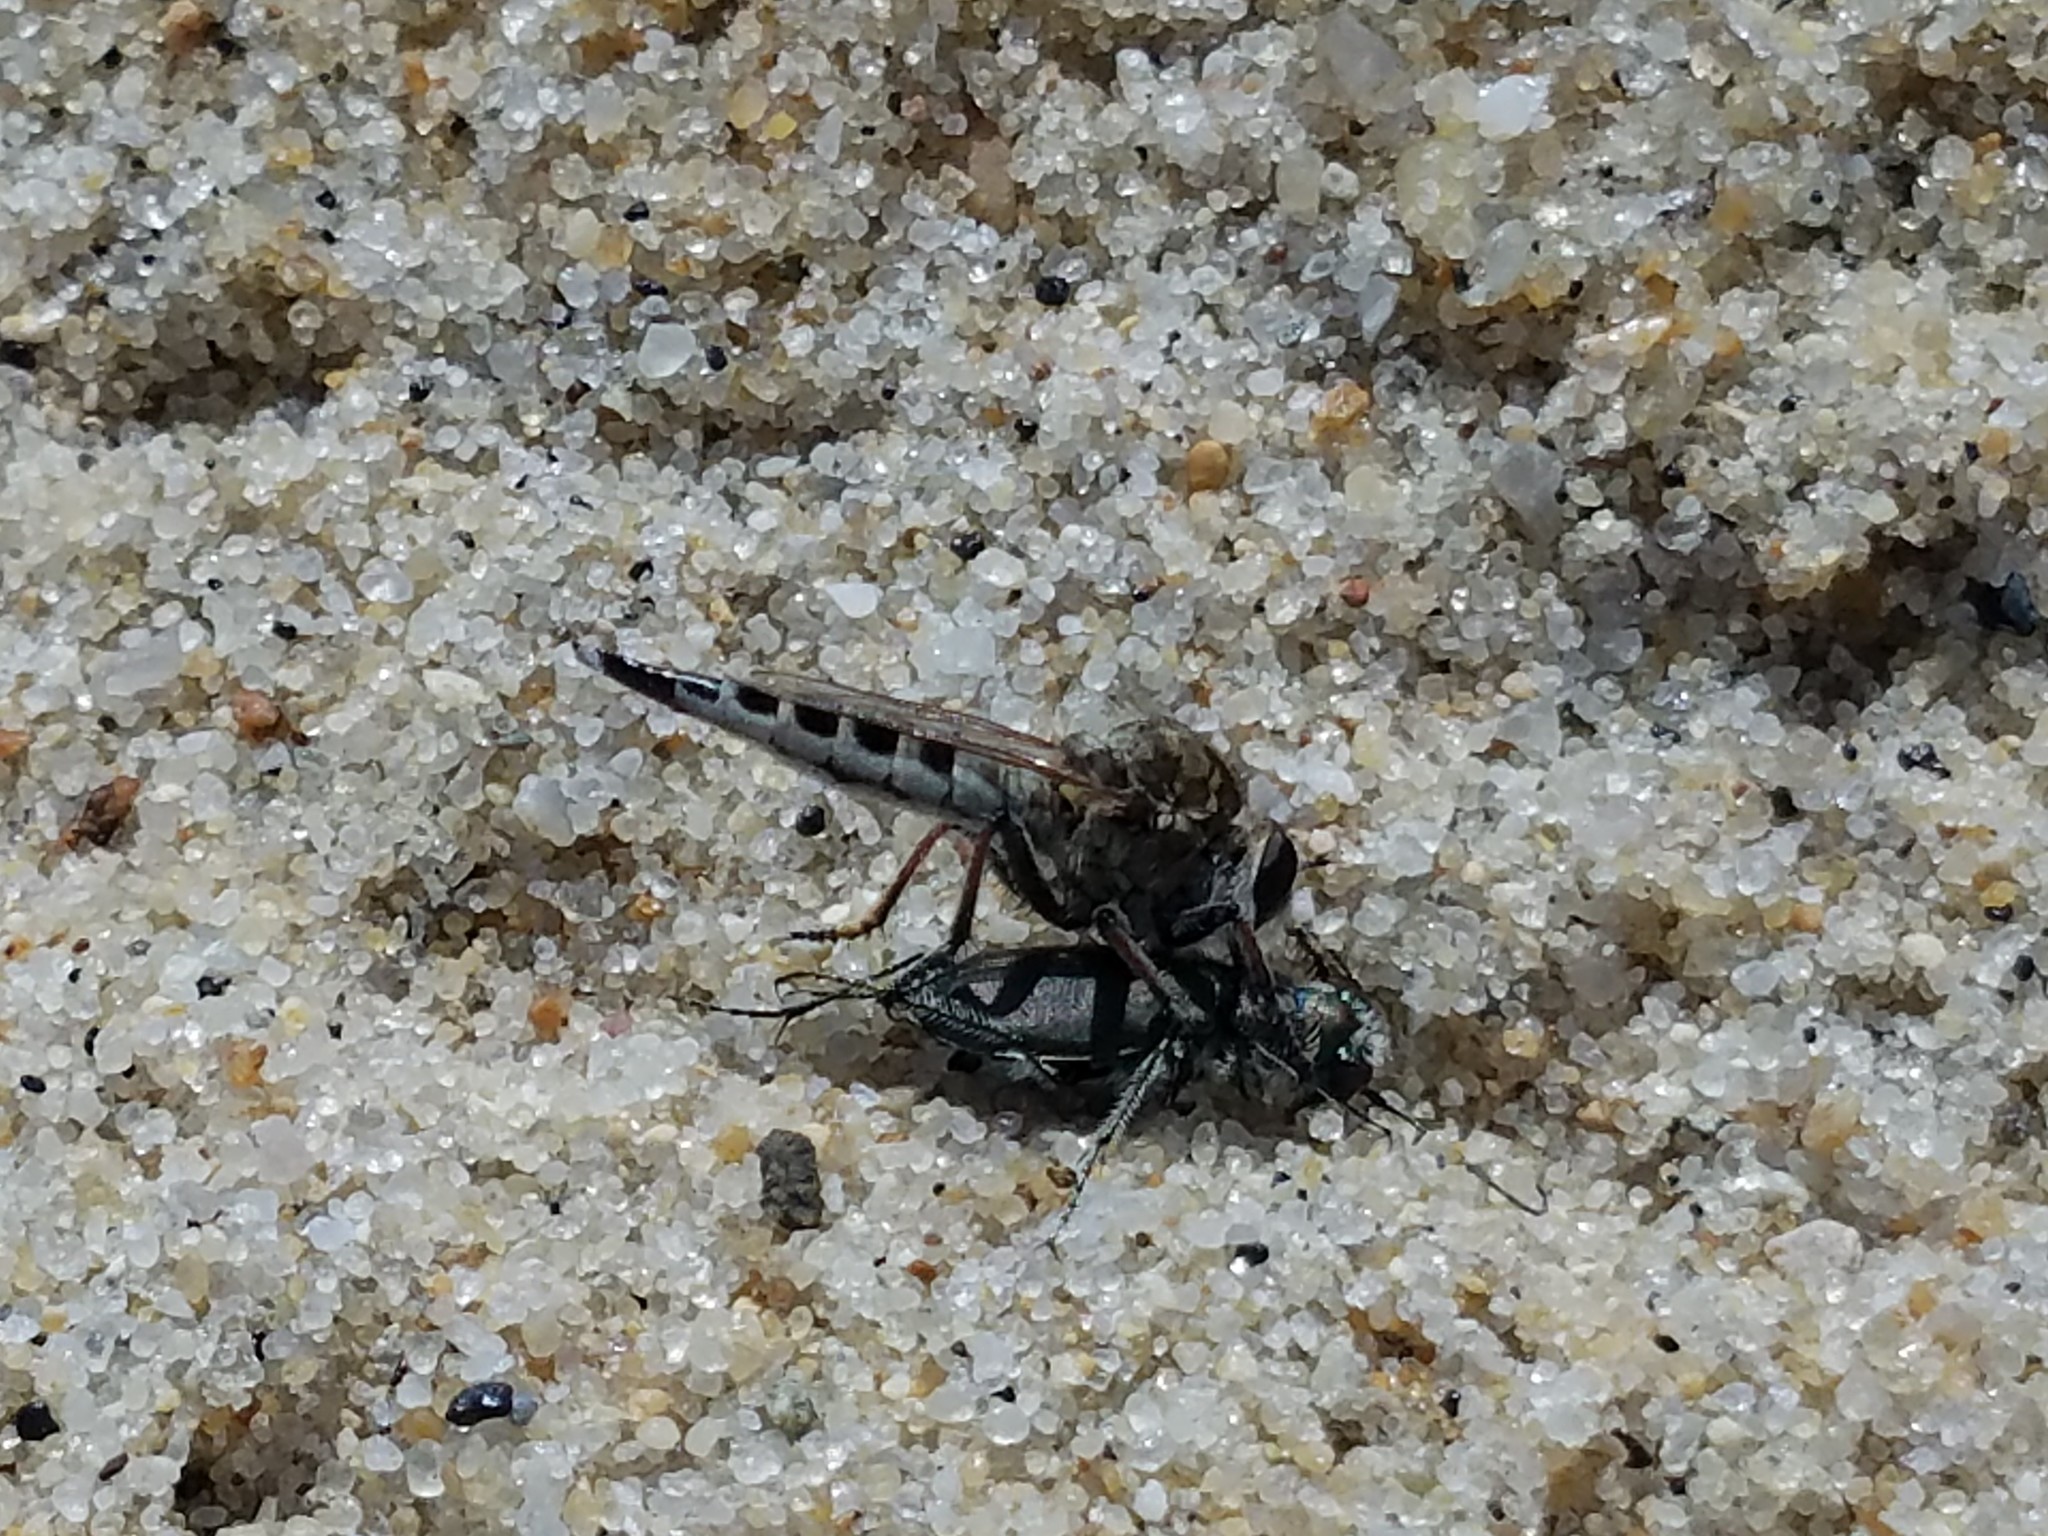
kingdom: Animalia
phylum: Arthropoda
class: Insecta
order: Diptera
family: Asilidae
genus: Efferia
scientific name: Efferia albibarbis
